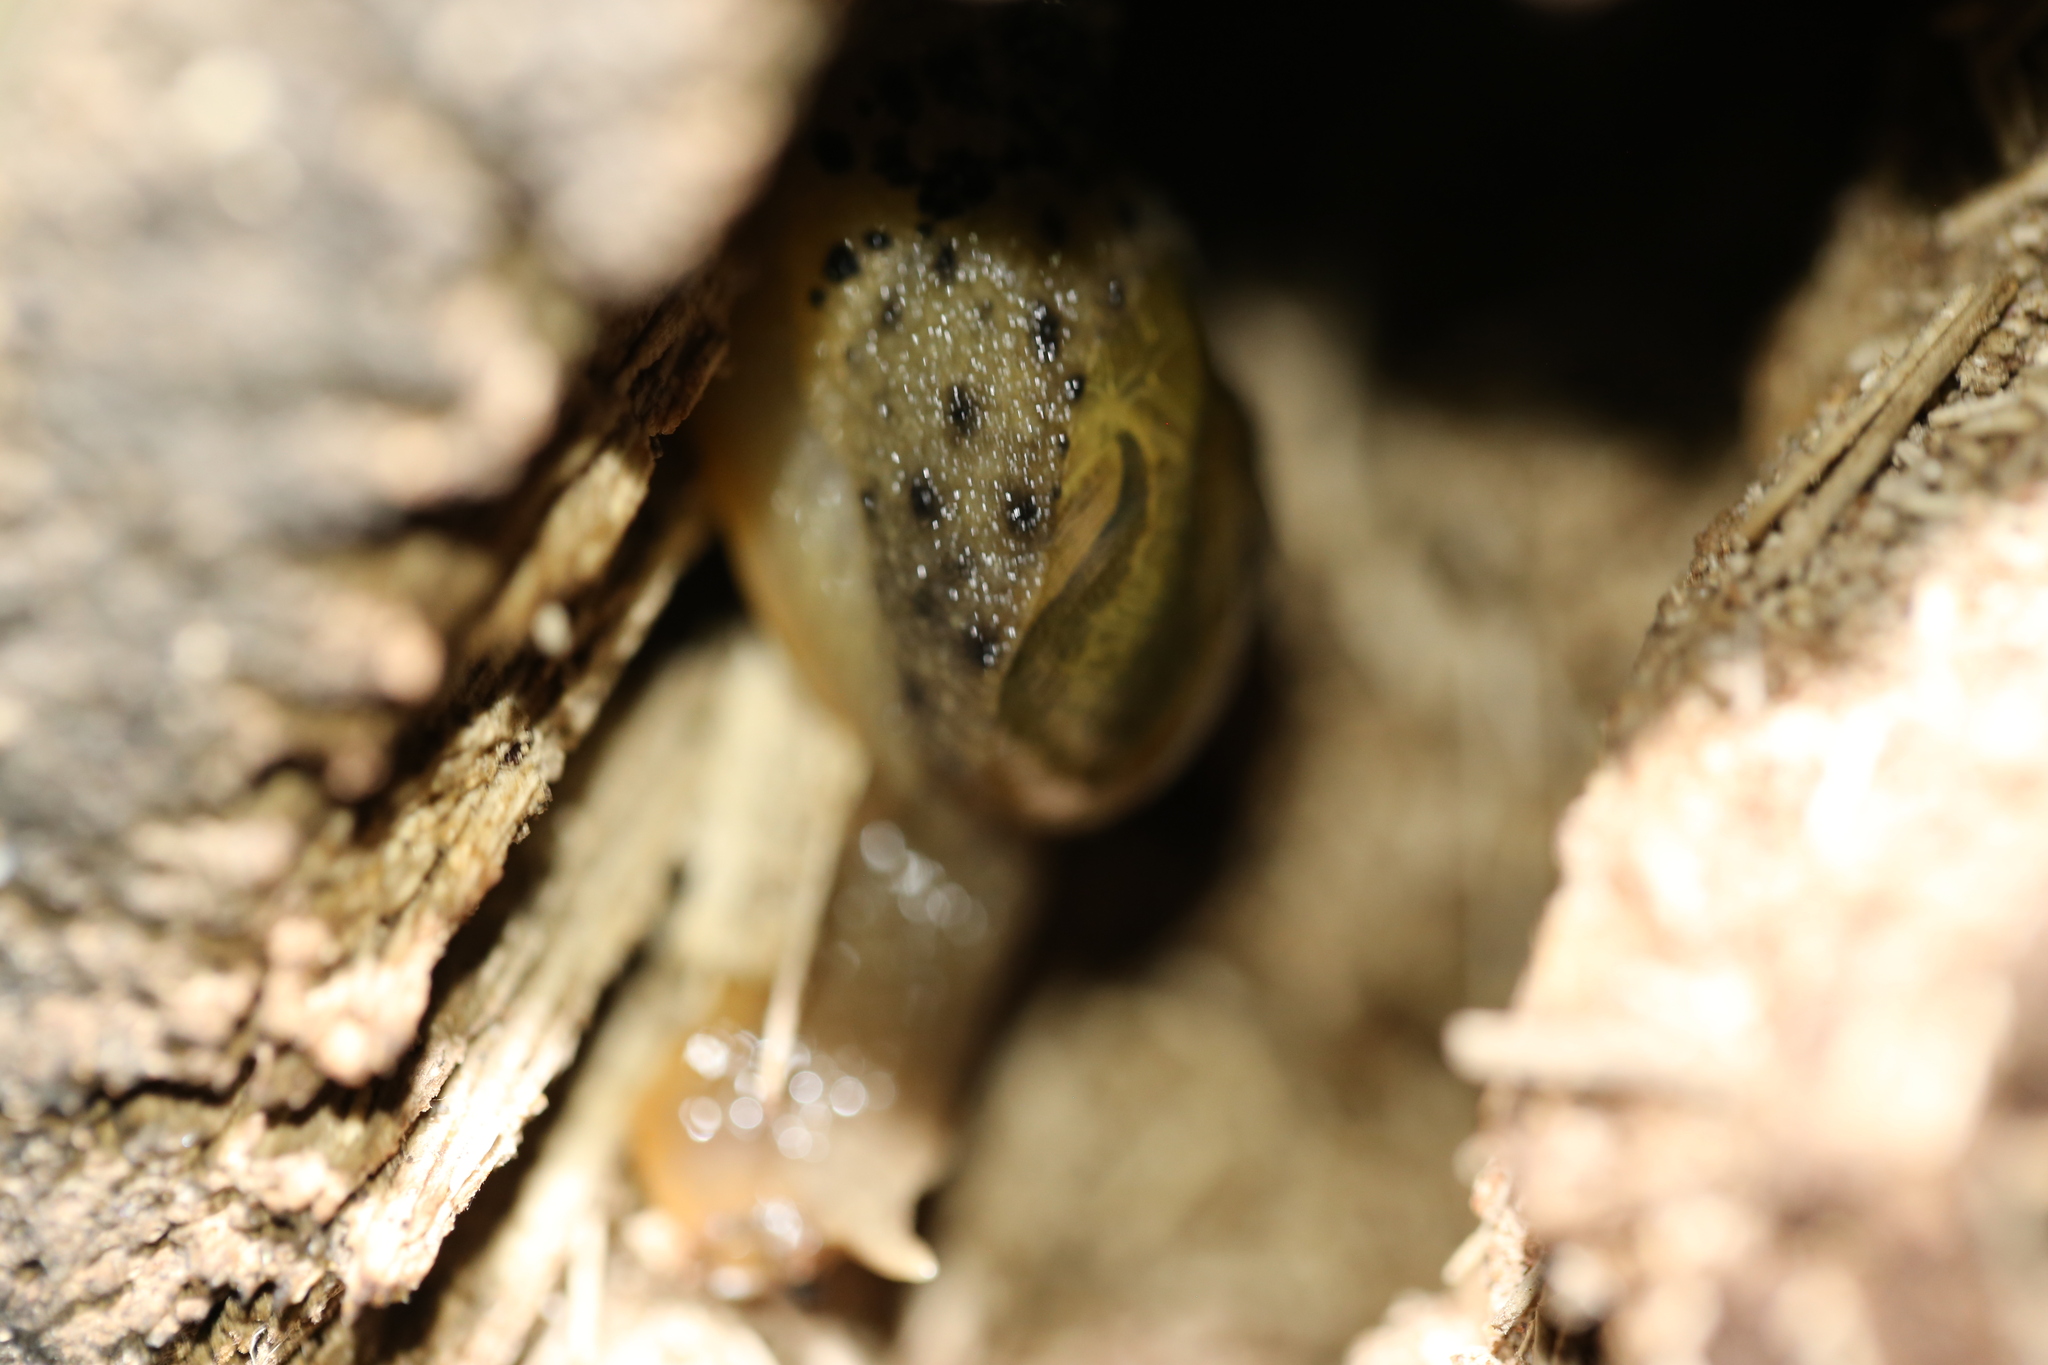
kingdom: Animalia
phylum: Mollusca
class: Gastropoda
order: Stylommatophora
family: Helicarionidae
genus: Stanisicarion
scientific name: Stanisicarion aquila
